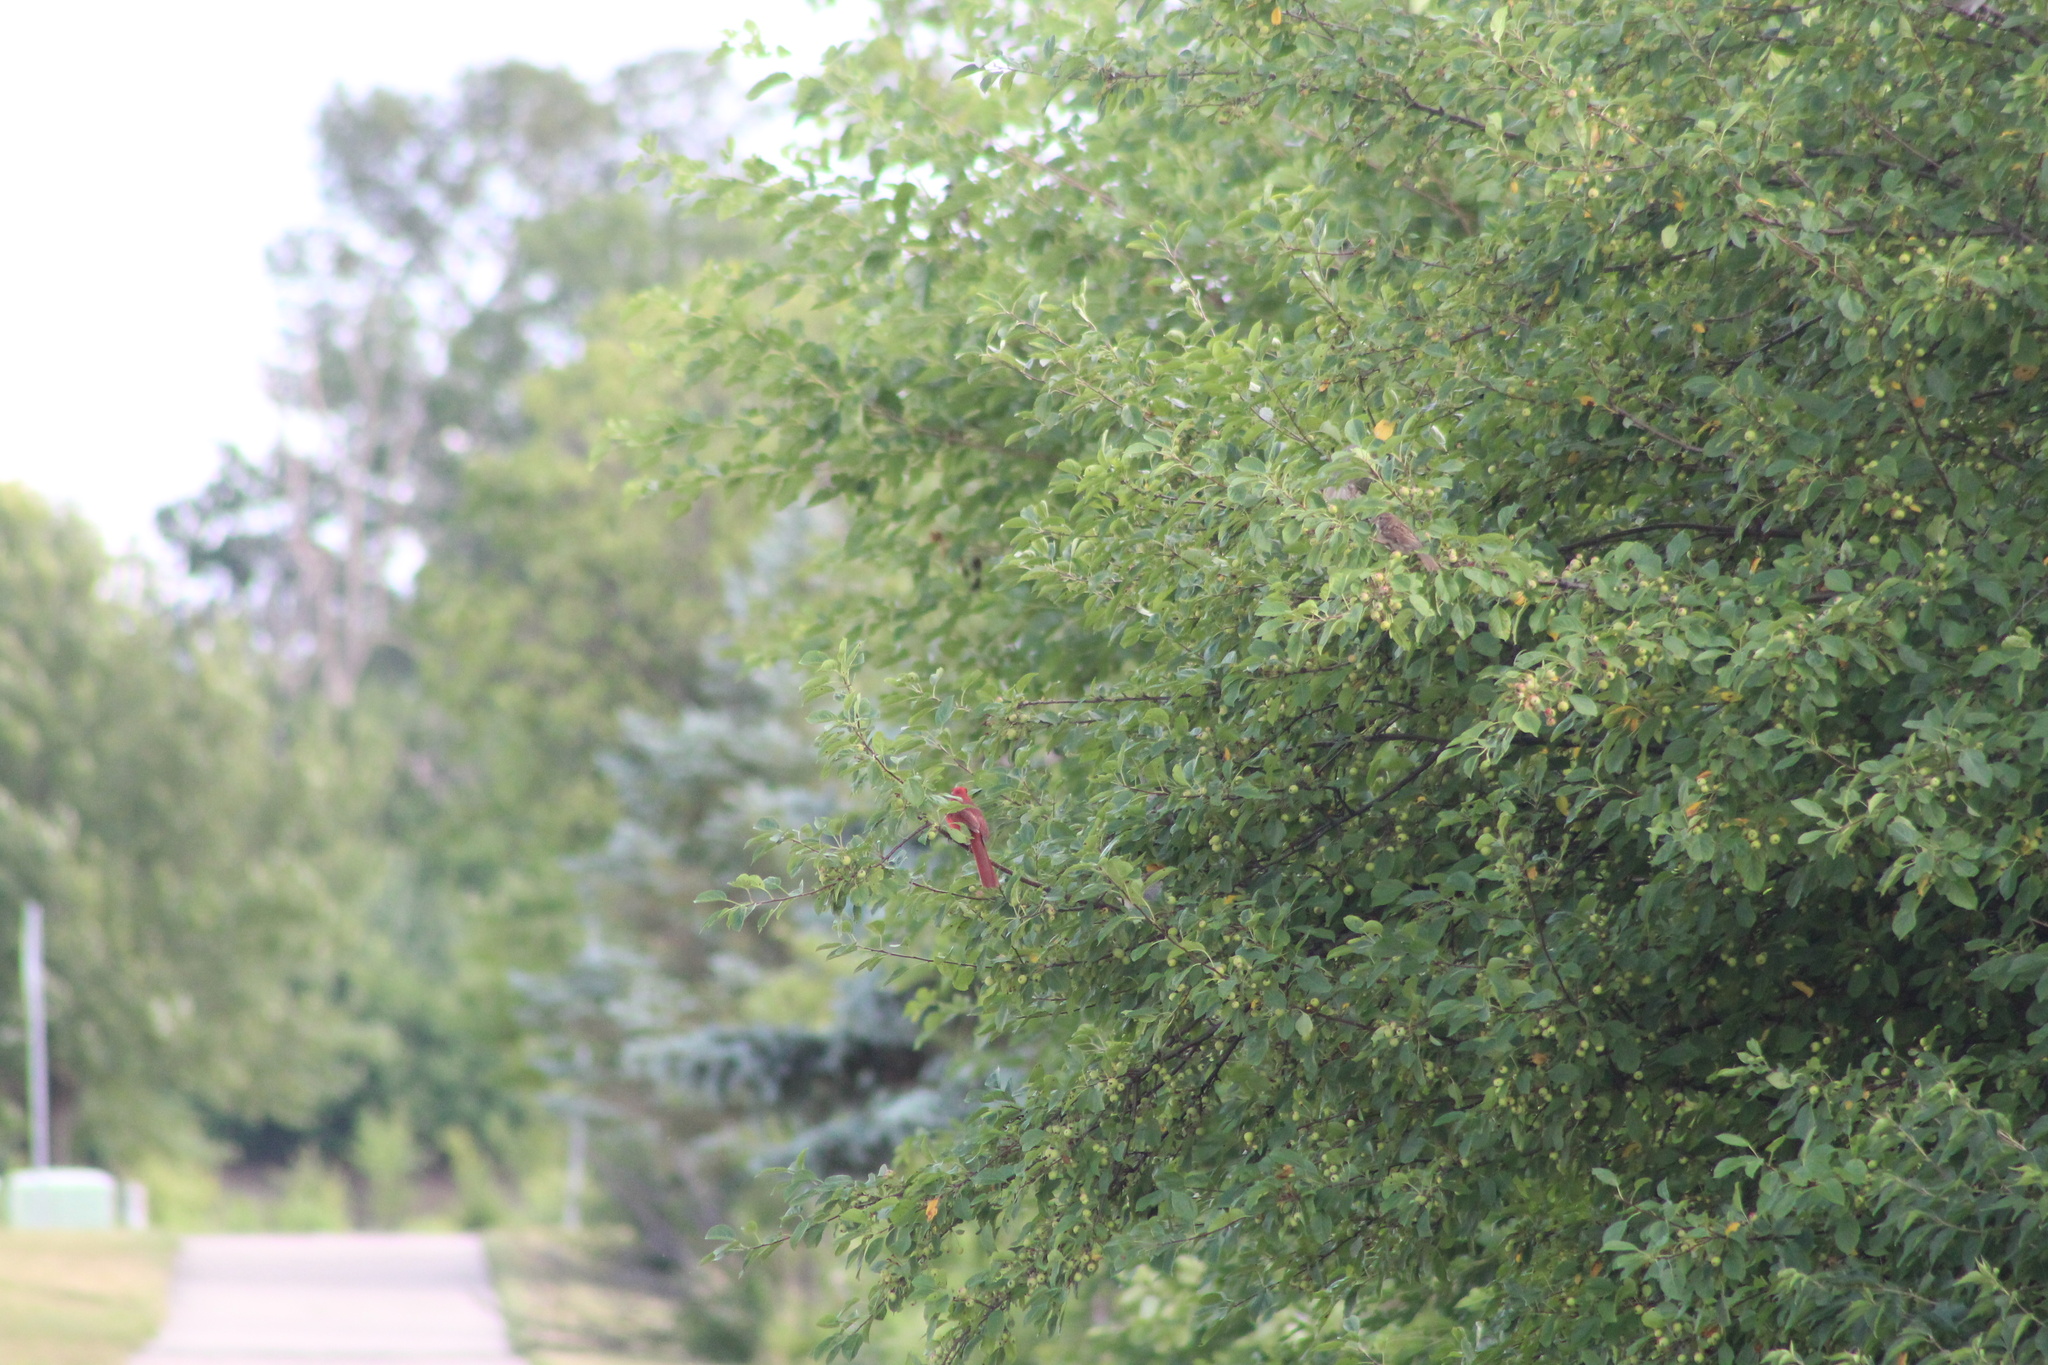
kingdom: Animalia
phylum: Chordata
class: Aves
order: Passeriformes
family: Cardinalidae
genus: Cardinalis
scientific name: Cardinalis cardinalis
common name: Northern cardinal
